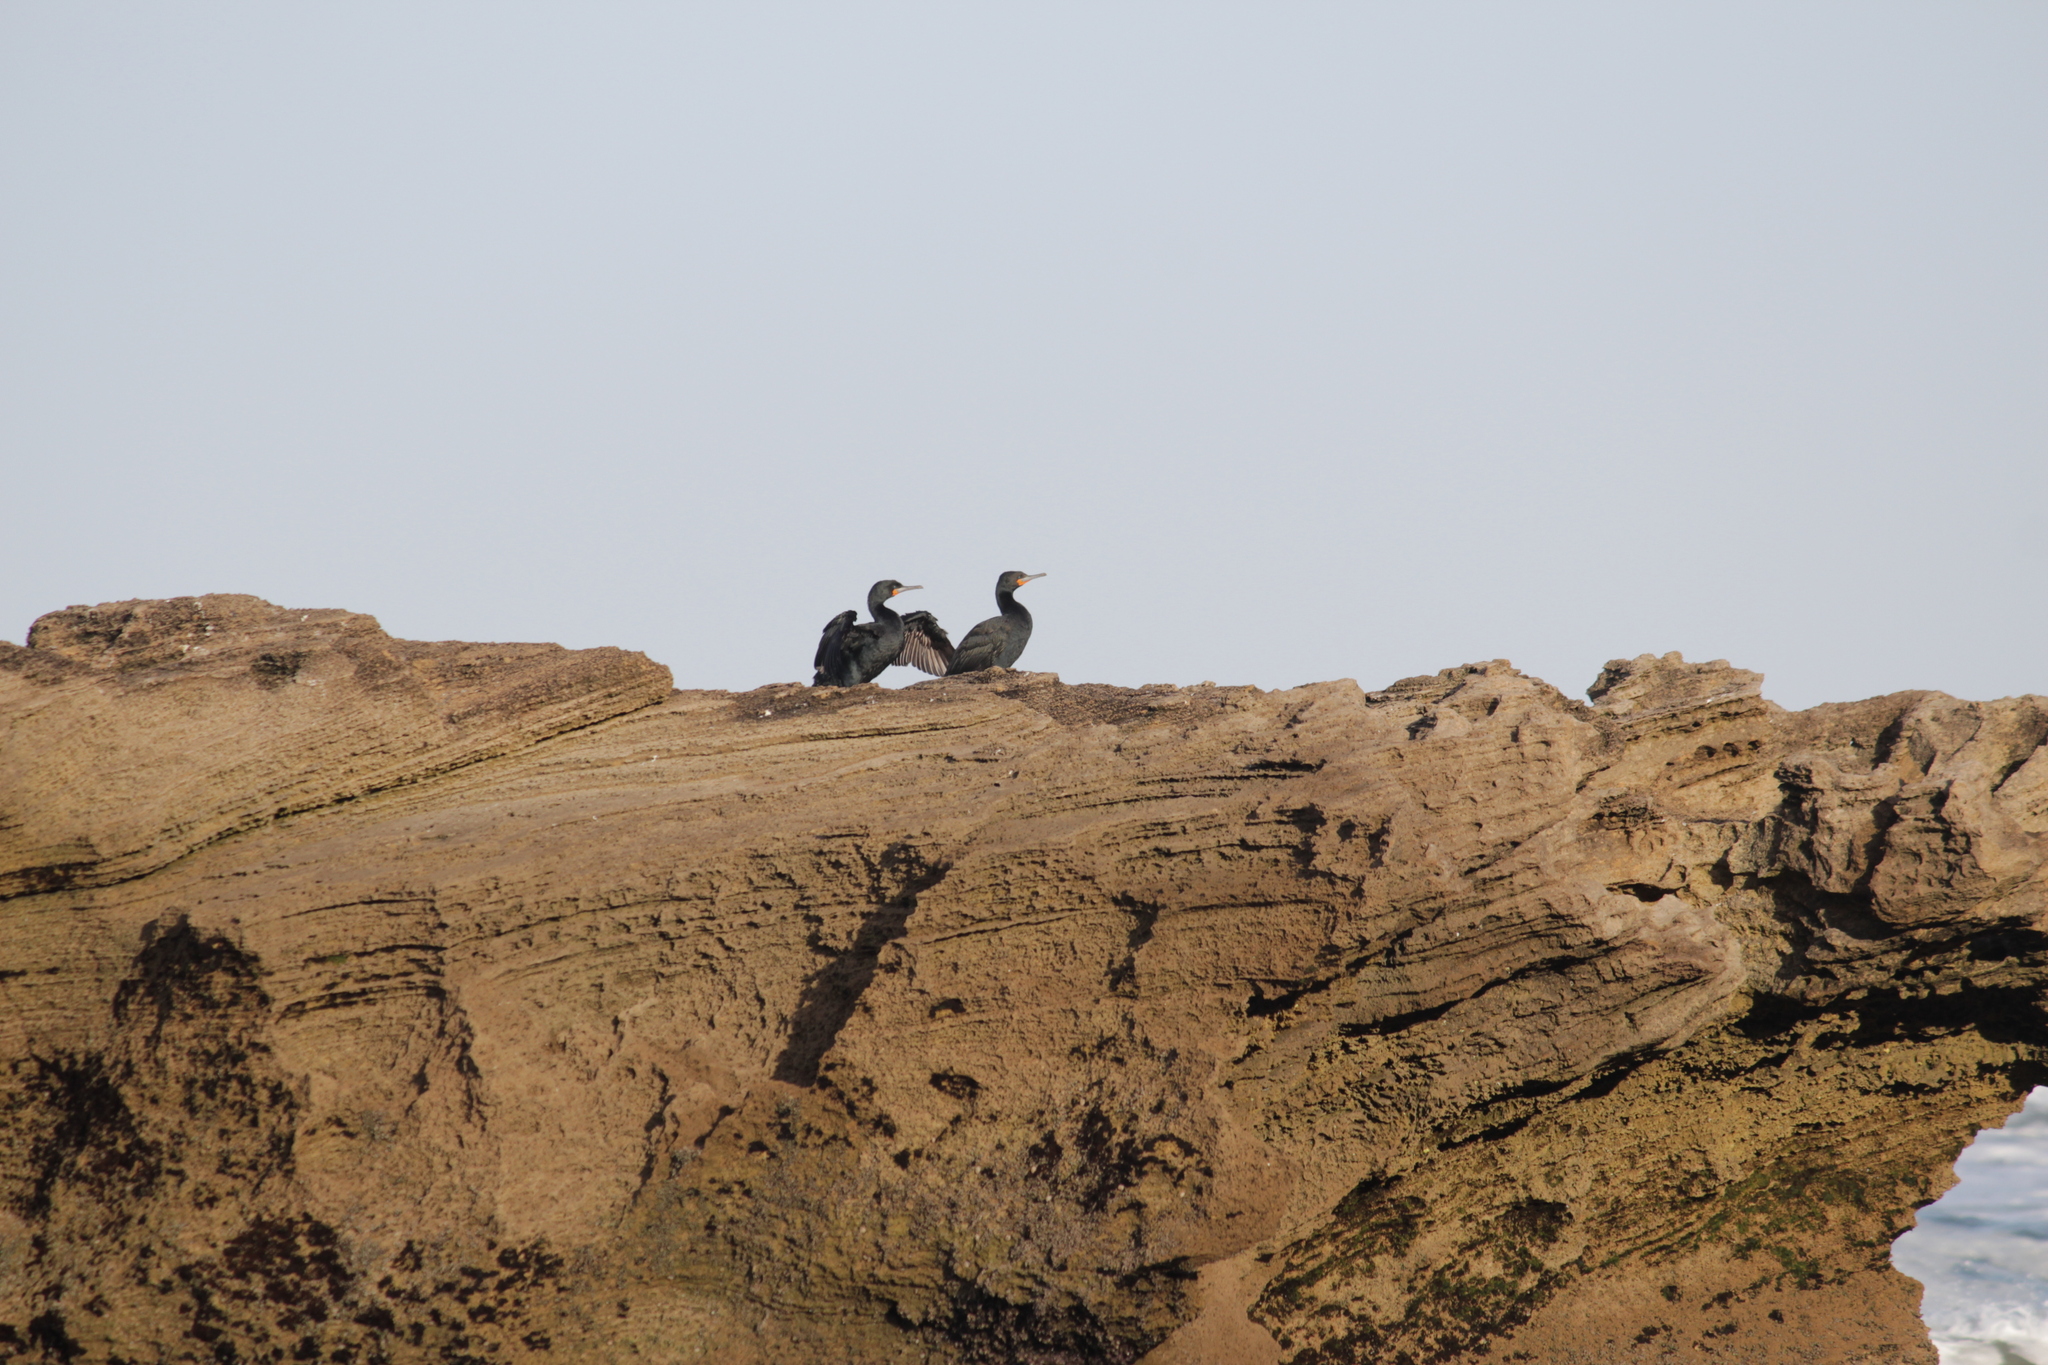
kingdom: Animalia
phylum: Chordata
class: Aves
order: Suliformes
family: Phalacrocoracidae
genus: Phalacrocorax
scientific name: Phalacrocorax capensis
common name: Cape cormorant
